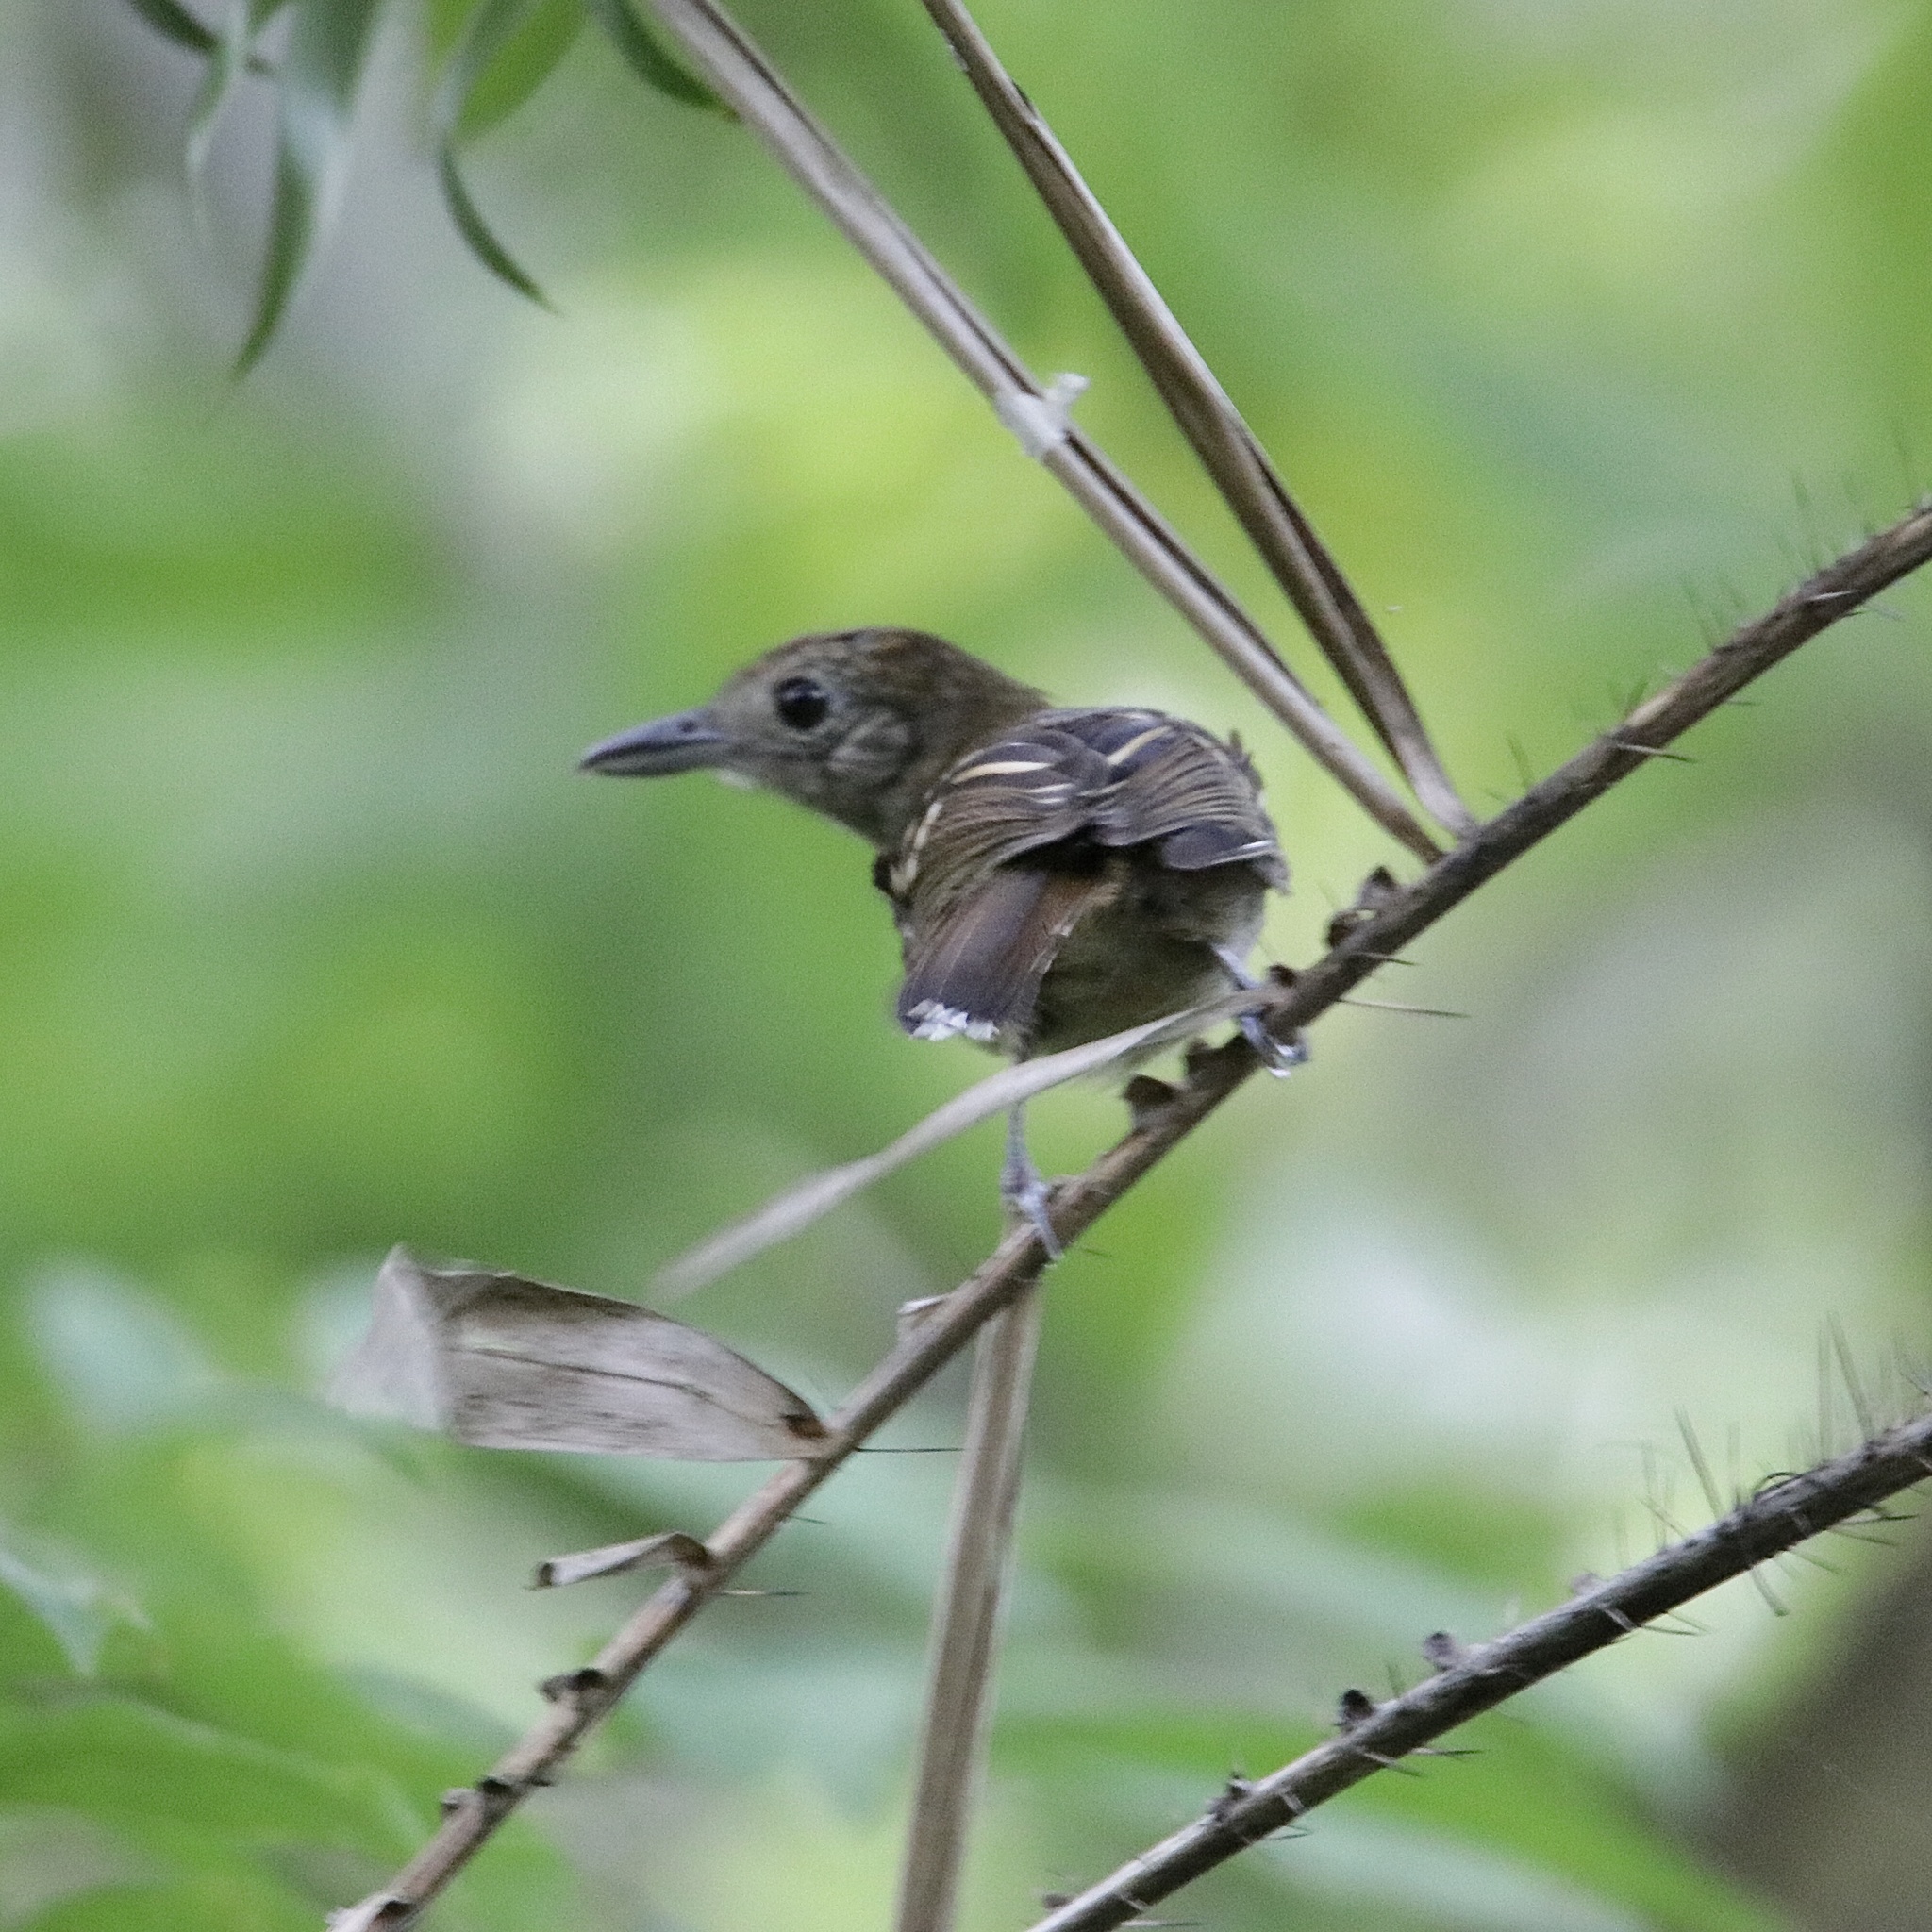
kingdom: Animalia
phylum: Chordata
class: Aves
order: Passeriformes
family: Thamnophilidae
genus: Thamnophilus
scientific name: Thamnophilus atrinucha
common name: Black-crowned antshrike
